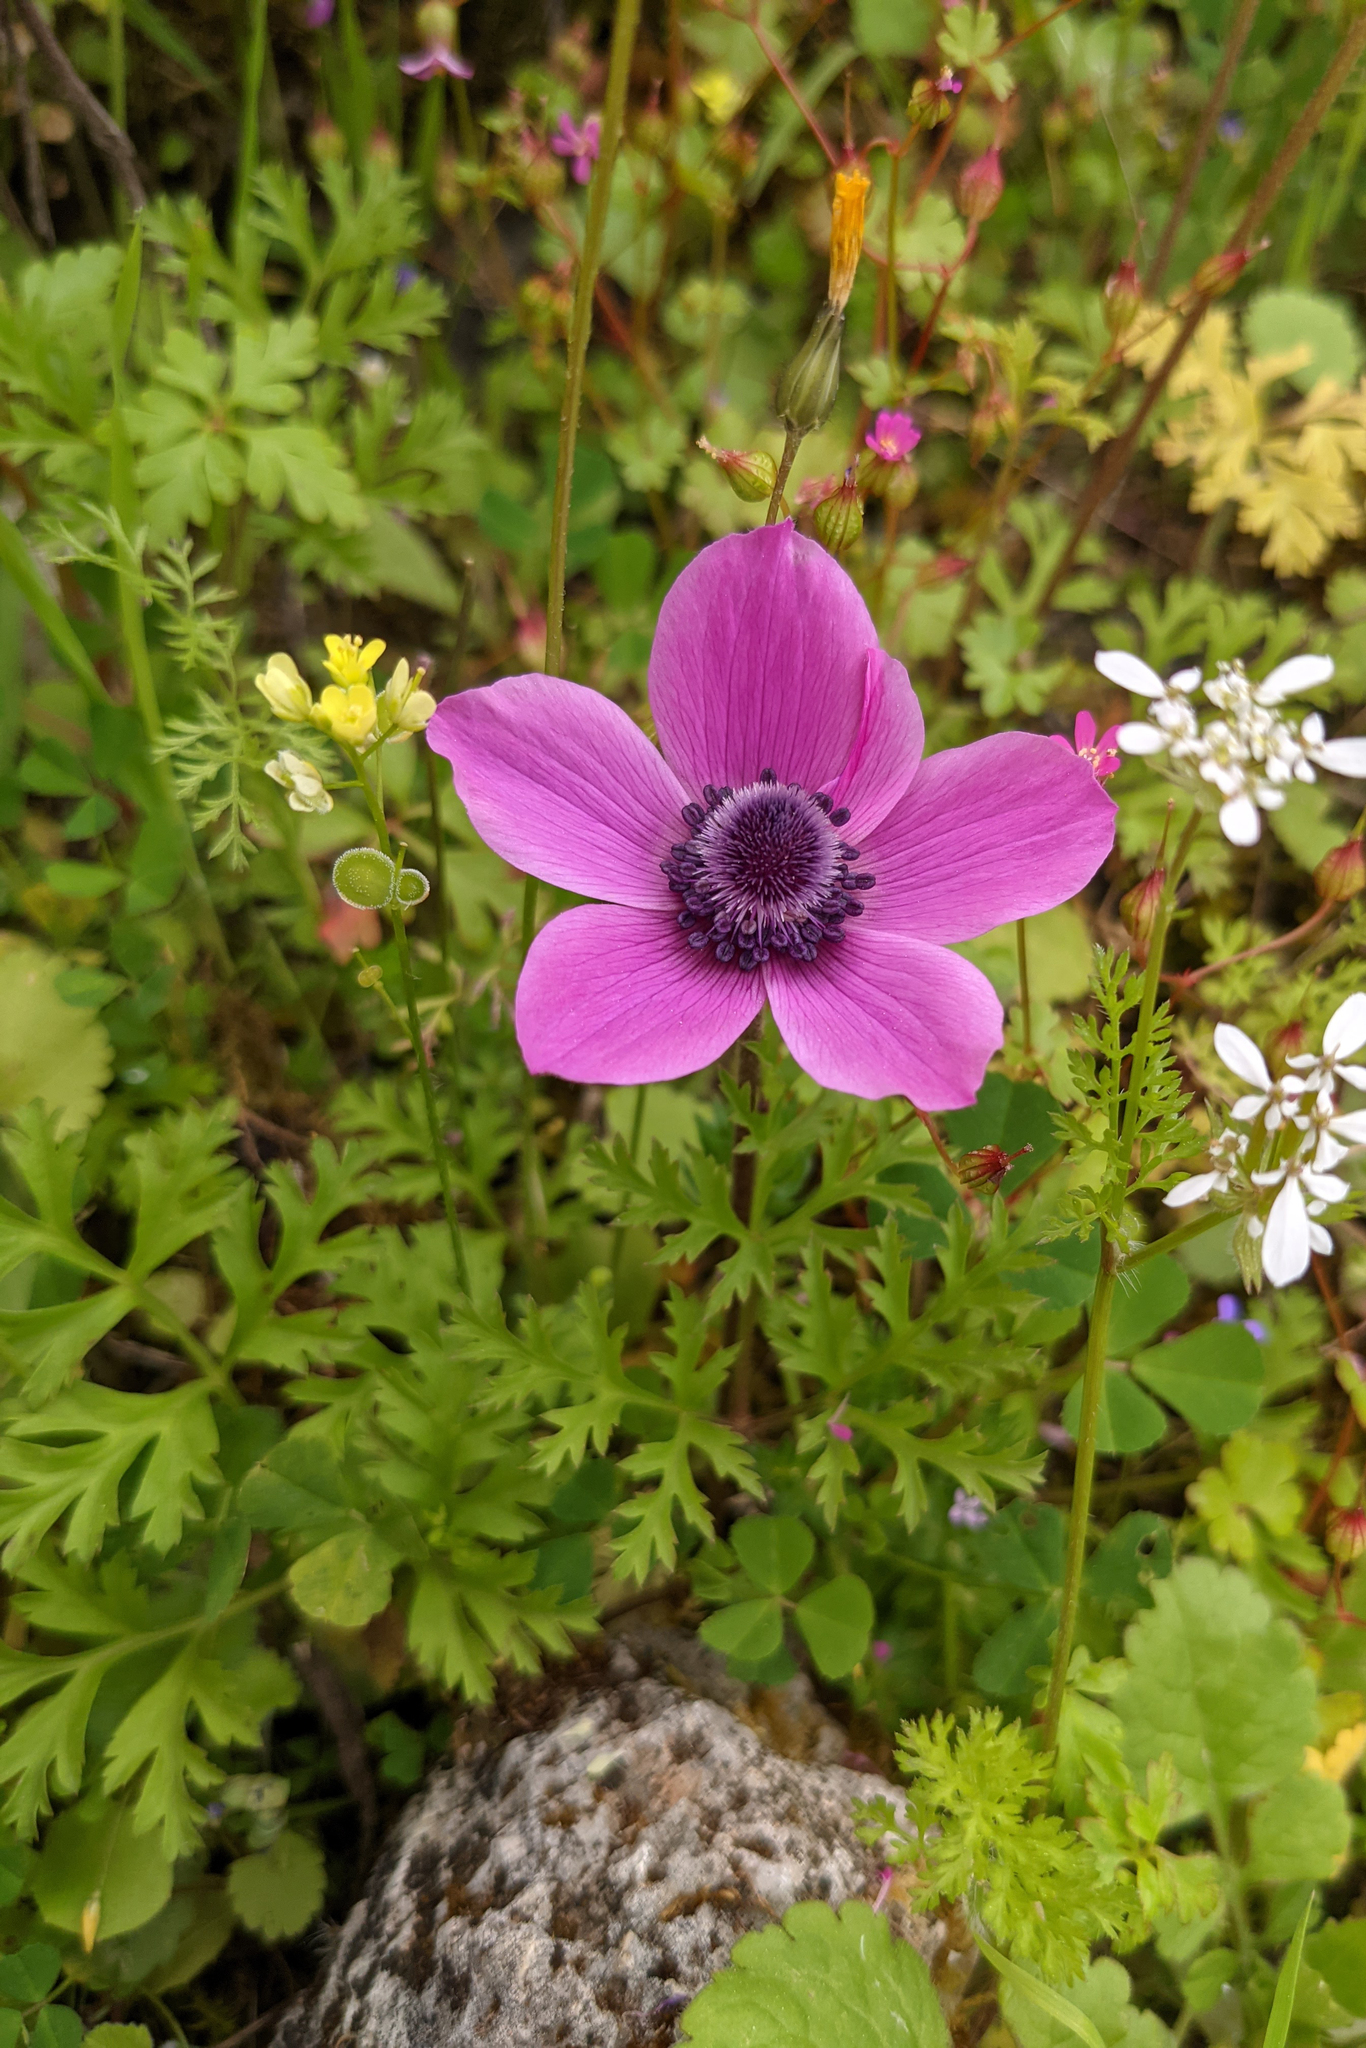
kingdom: Plantae
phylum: Tracheophyta
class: Magnoliopsida
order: Ranunculales
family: Ranunculaceae
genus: Anemone
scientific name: Anemone coronaria
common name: Poppy anemone
